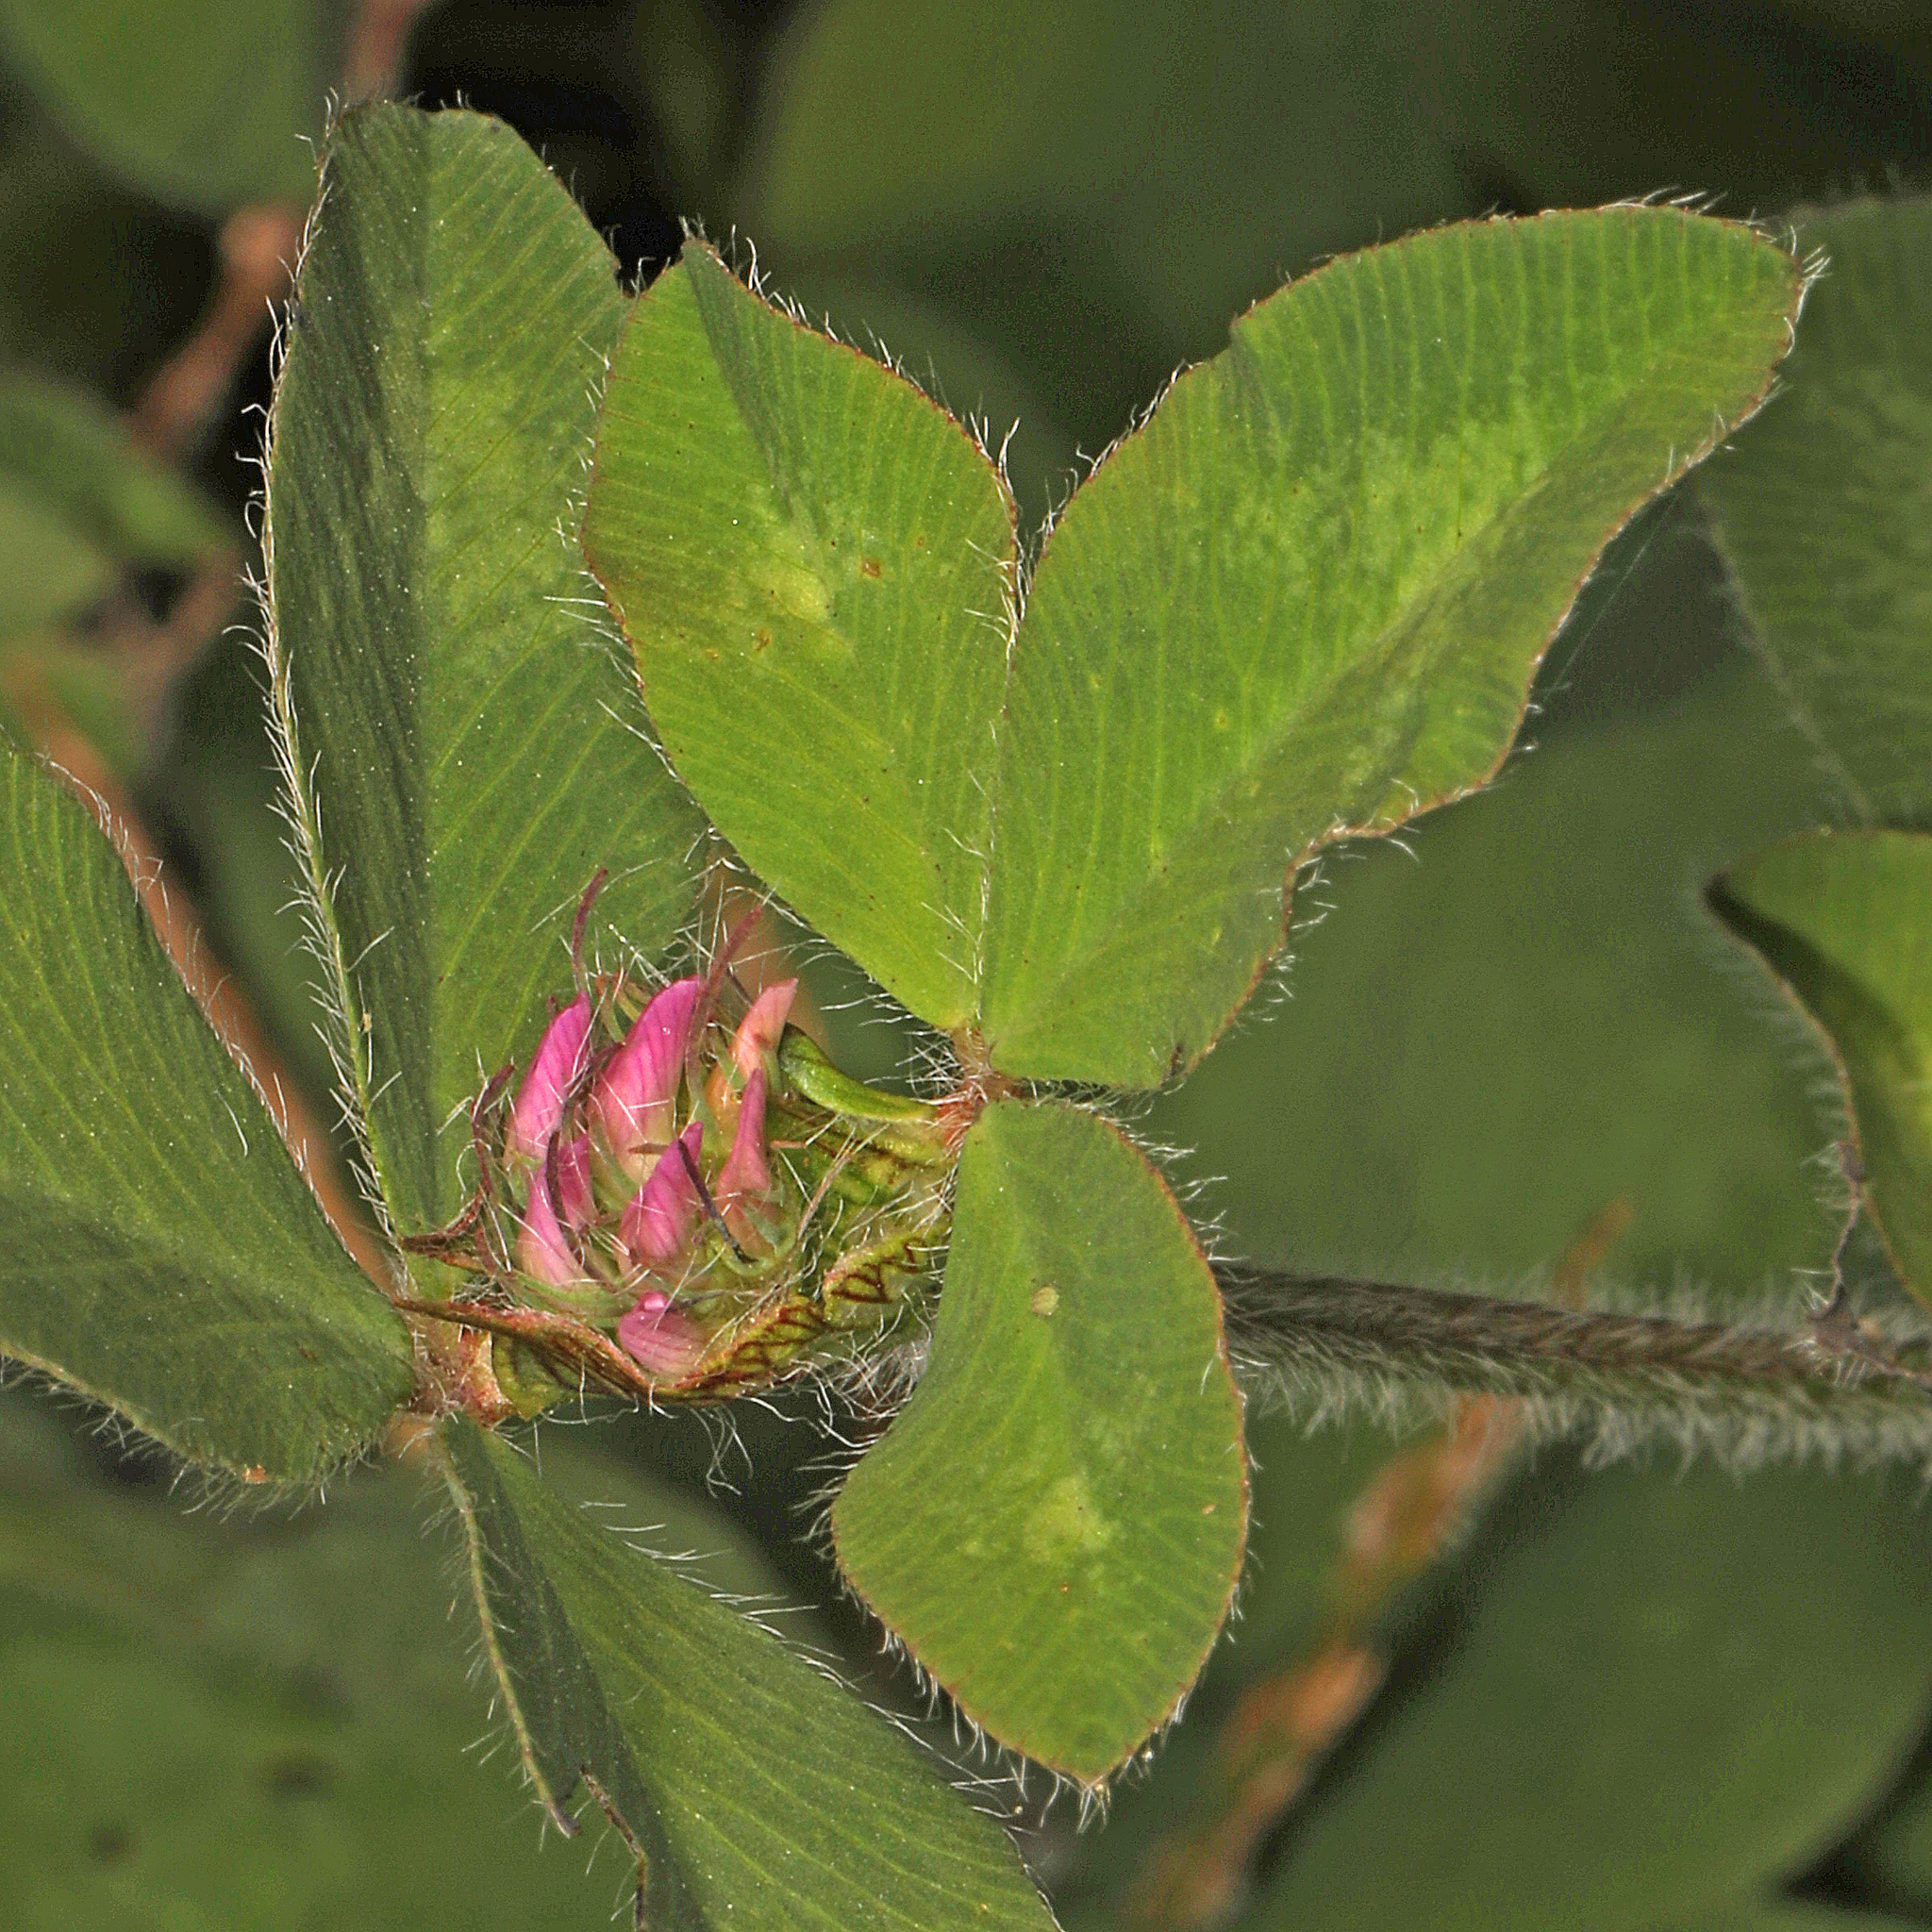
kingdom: Plantae
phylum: Tracheophyta
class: Magnoliopsida
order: Fabales
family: Fabaceae
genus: Trifolium
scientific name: Trifolium pratense
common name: Red clover
